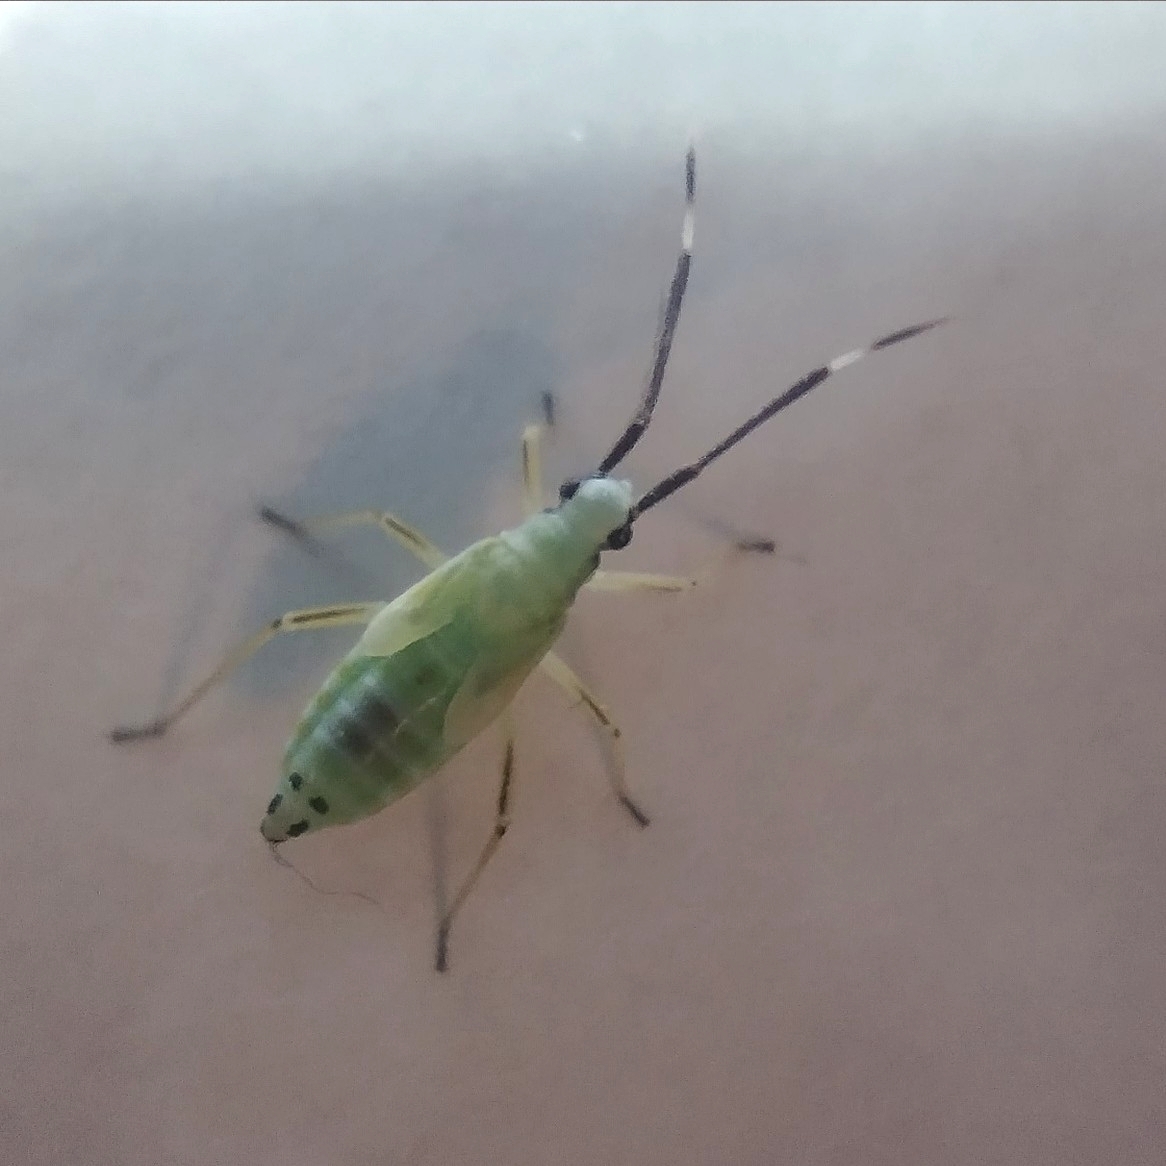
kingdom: Animalia
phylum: Arthropoda
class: Insecta
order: Hemiptera
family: Miridae
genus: Cyllecoris
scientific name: Cyllecoris histrionius
